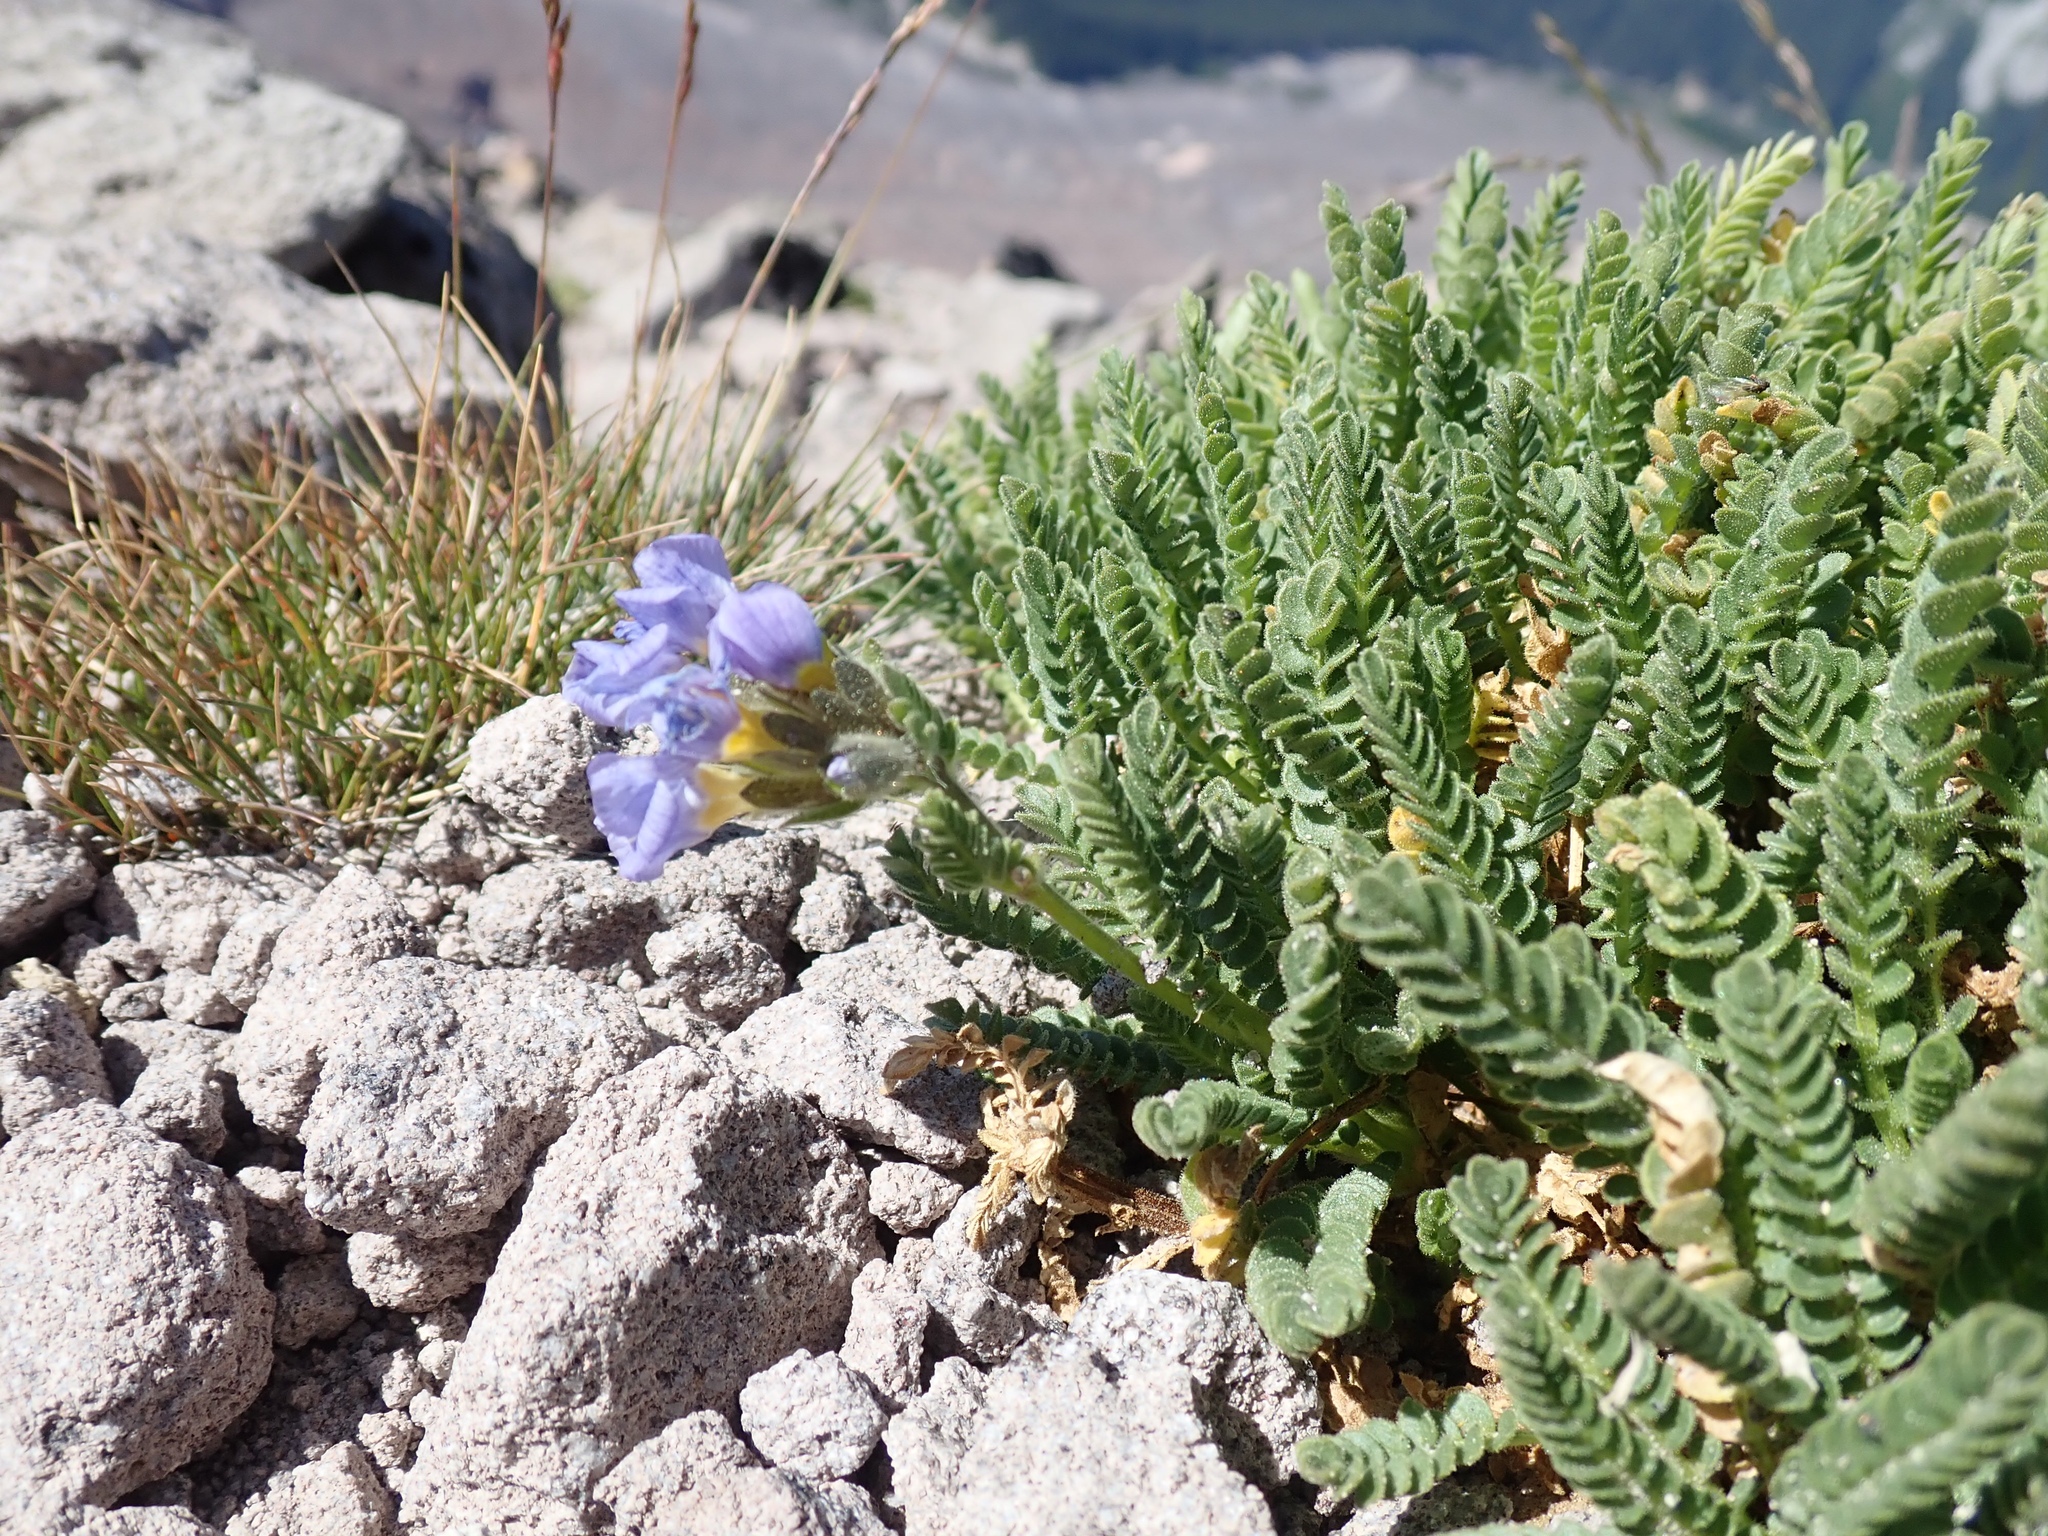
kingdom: Plantae
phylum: Tracheophyta
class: Magnoliopsida
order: Ericales
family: Polemoniaceae
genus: Polemonium
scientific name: Polemonium elegans
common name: Elegant jacob's-ladder
